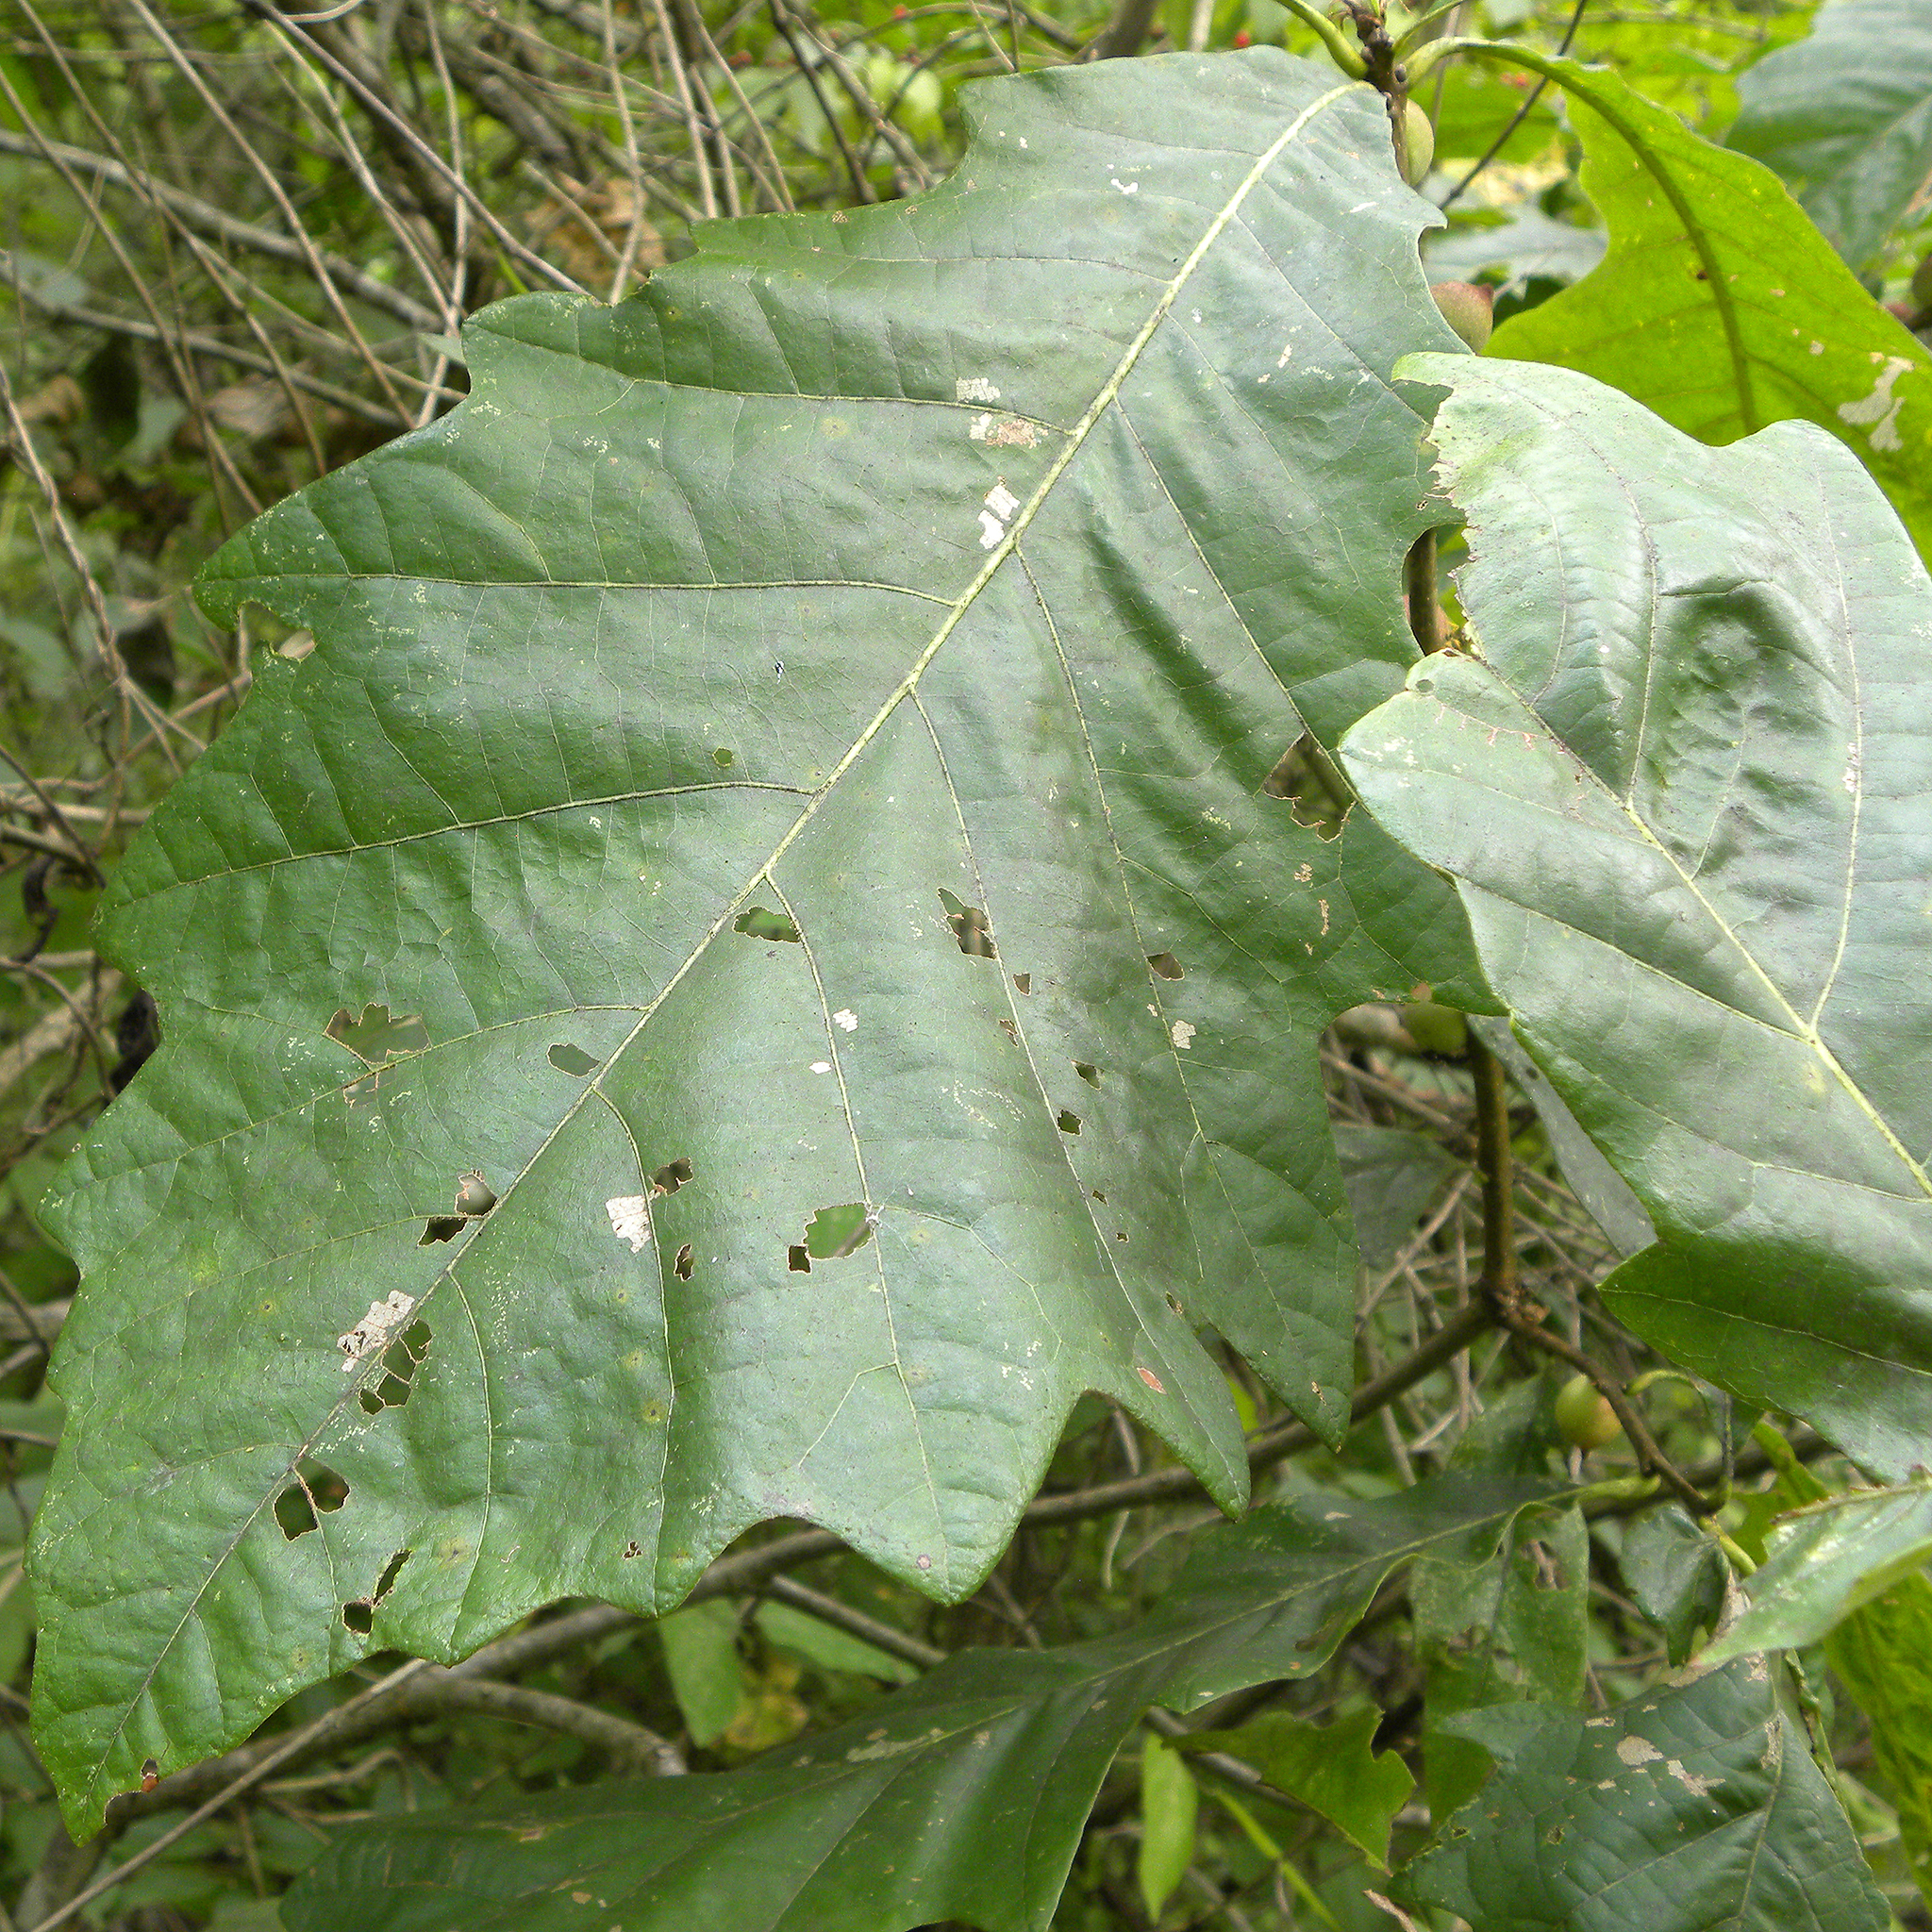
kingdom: Animalia
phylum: Arthropoda
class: Insecta
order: Hymenoptera
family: Cynipidae
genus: Disholcaspis
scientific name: Disholcaspis
